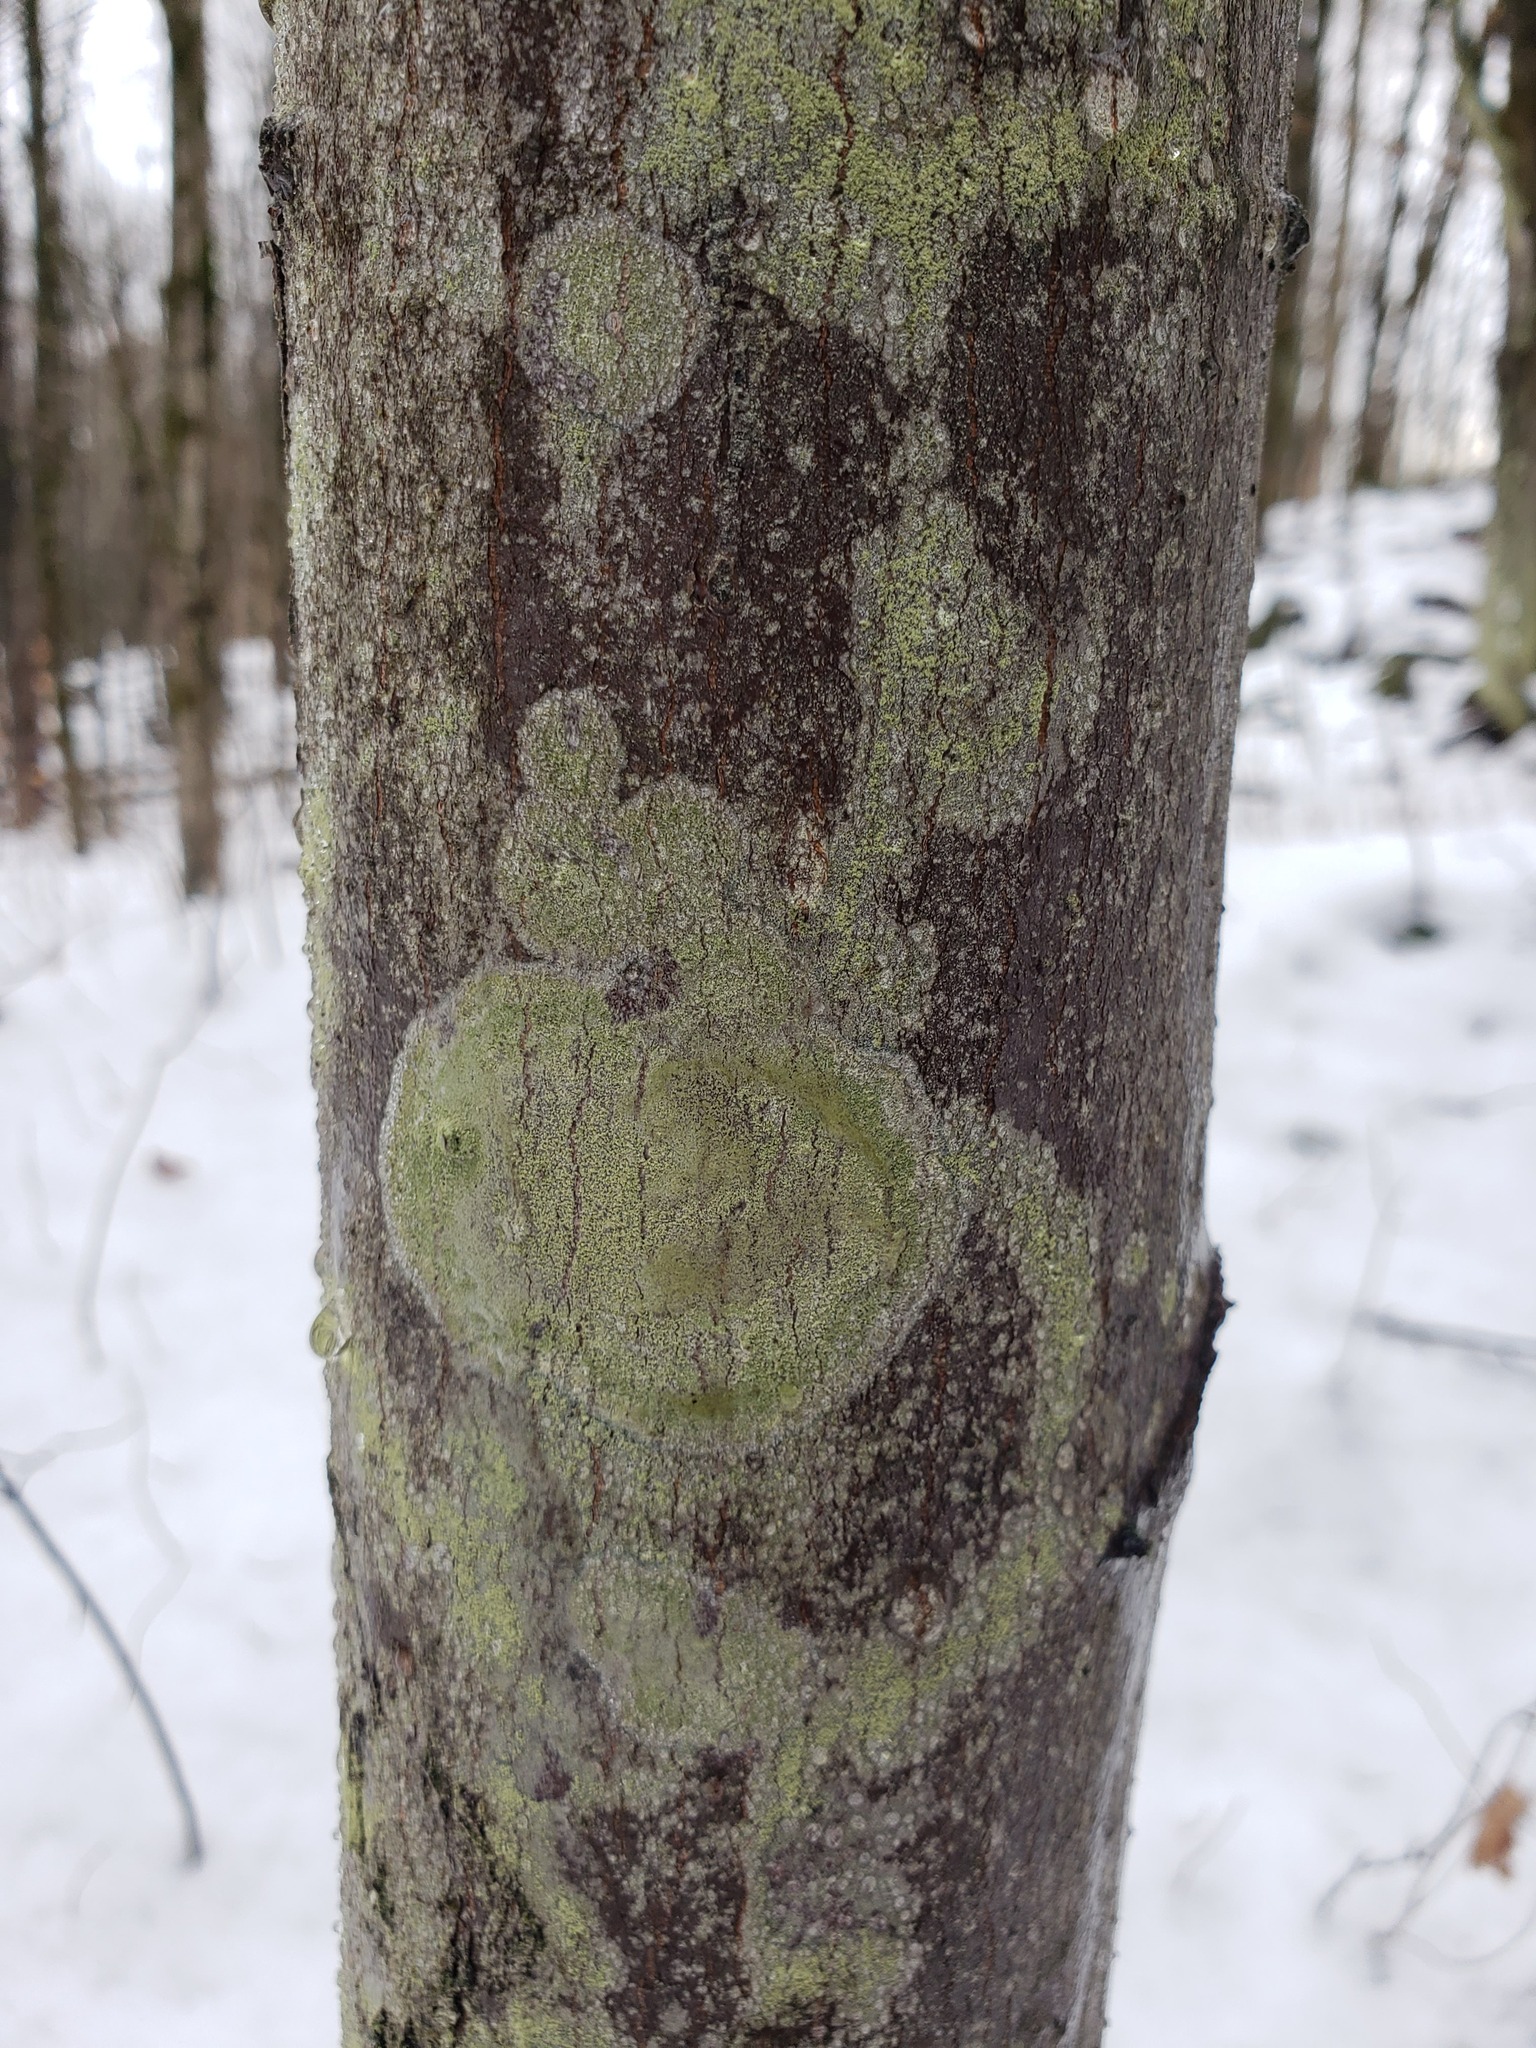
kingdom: Fungi
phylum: Ascomycota
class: Lecanoromycetes
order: Pertusariales
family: Pertusariaceae
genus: Verseghya
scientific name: Verseghya thysanophora
